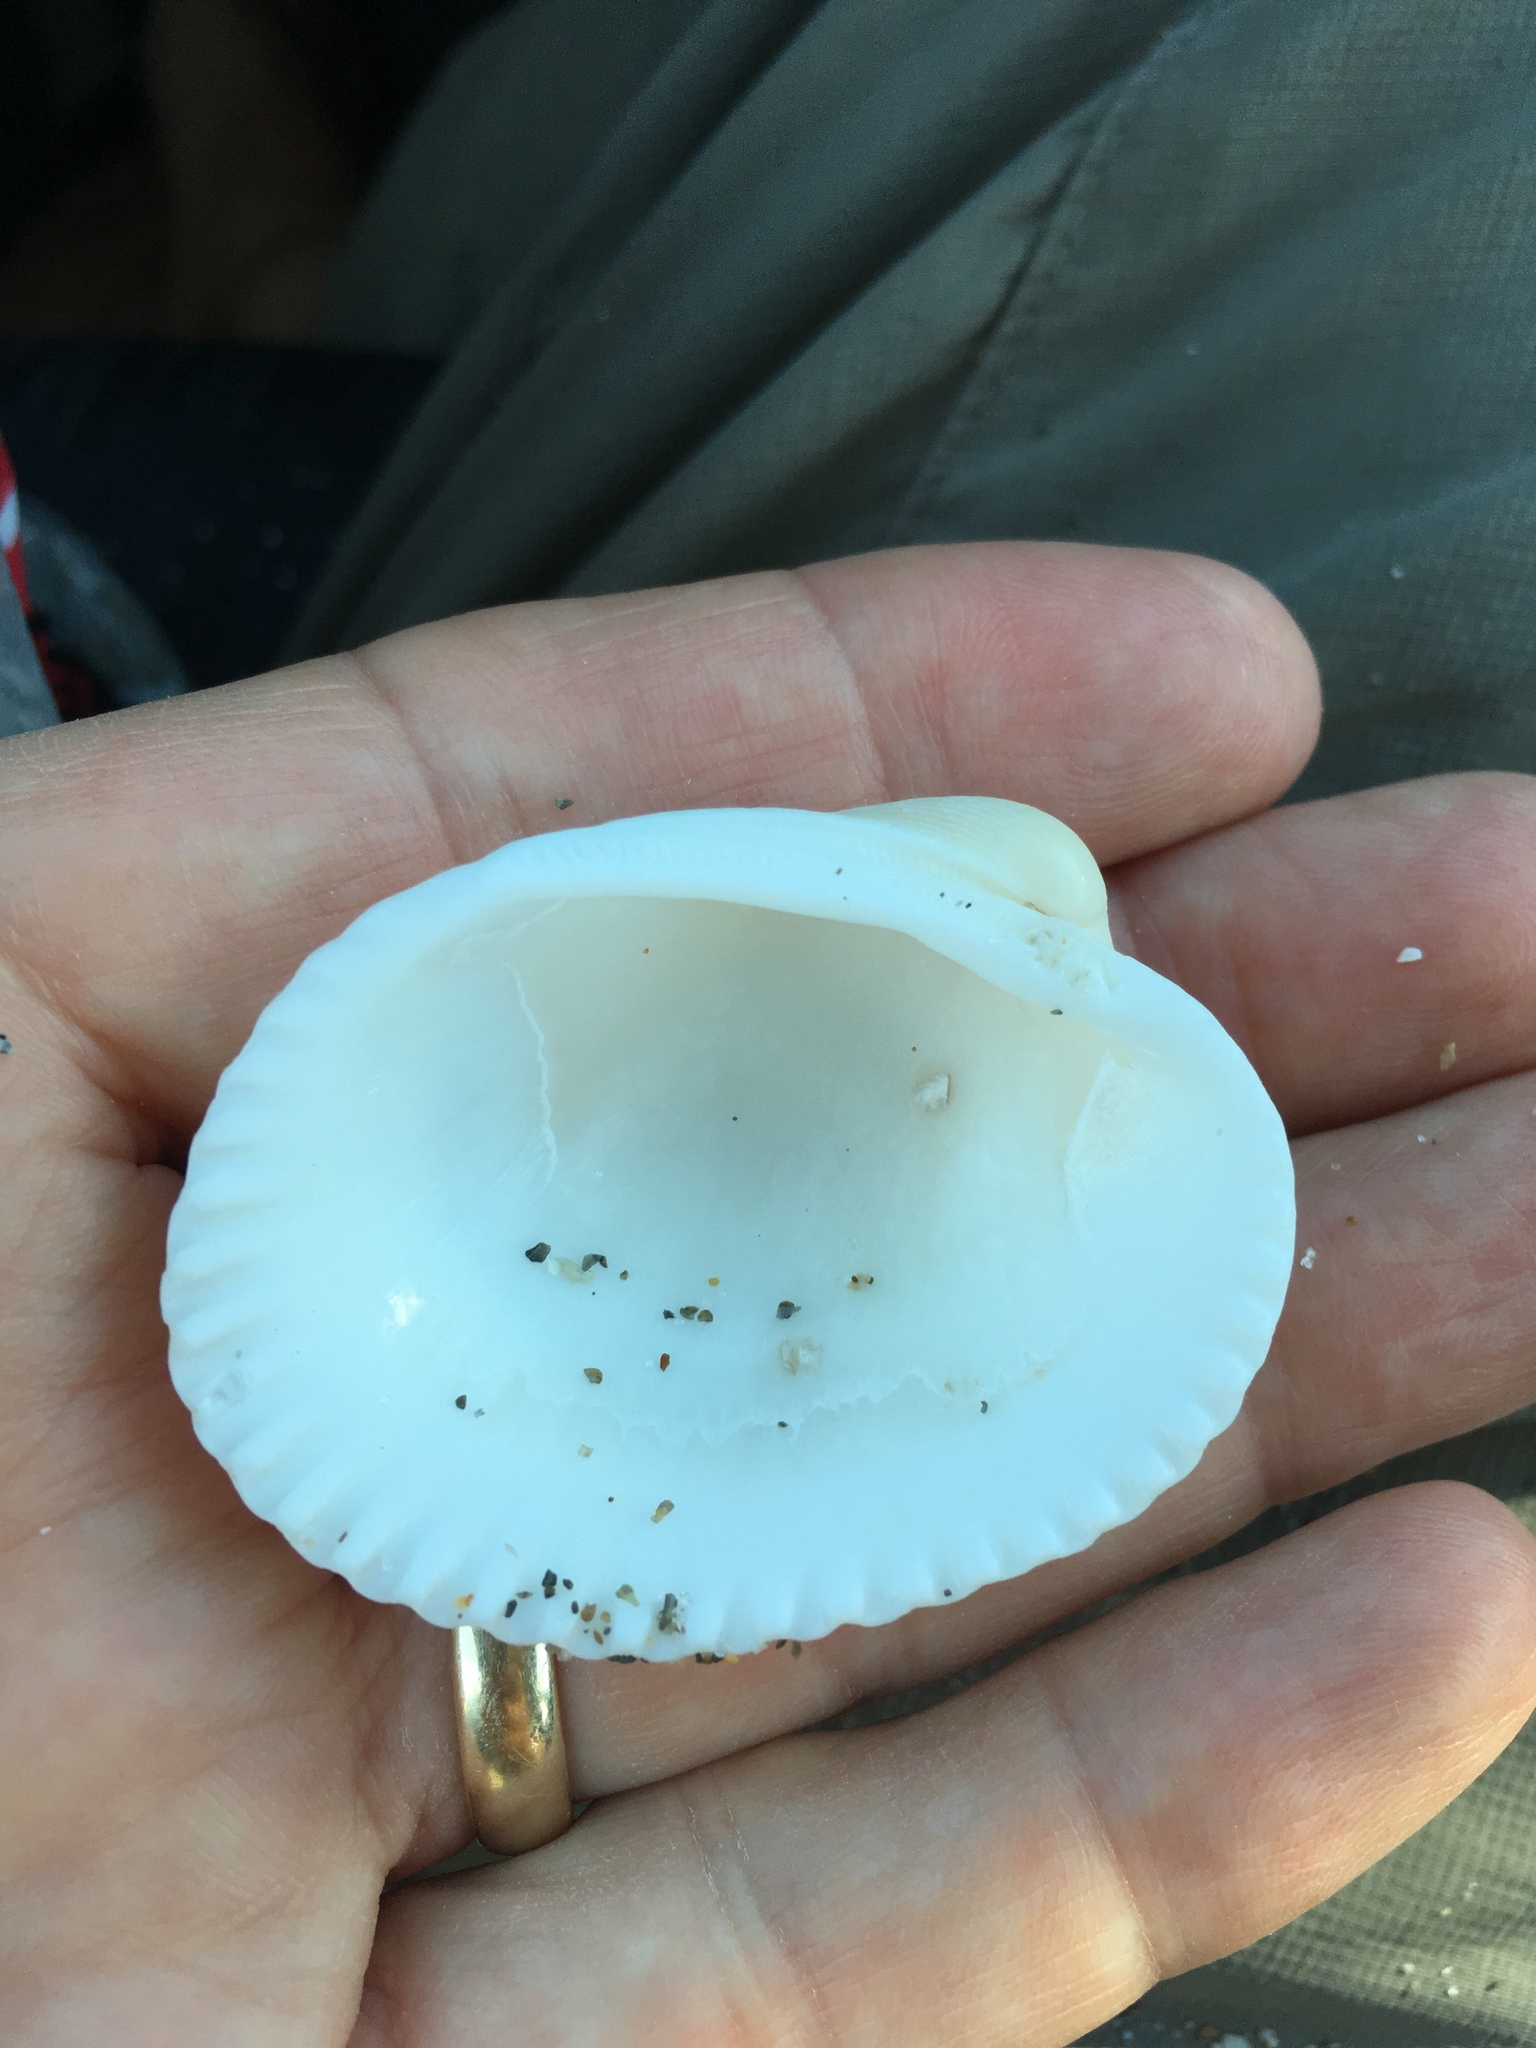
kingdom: Animalia
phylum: Mollusca
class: Bivalvia
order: Arcida
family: Arcidae
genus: Lunarca
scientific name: Lunarca ovalis
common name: Blood ark
